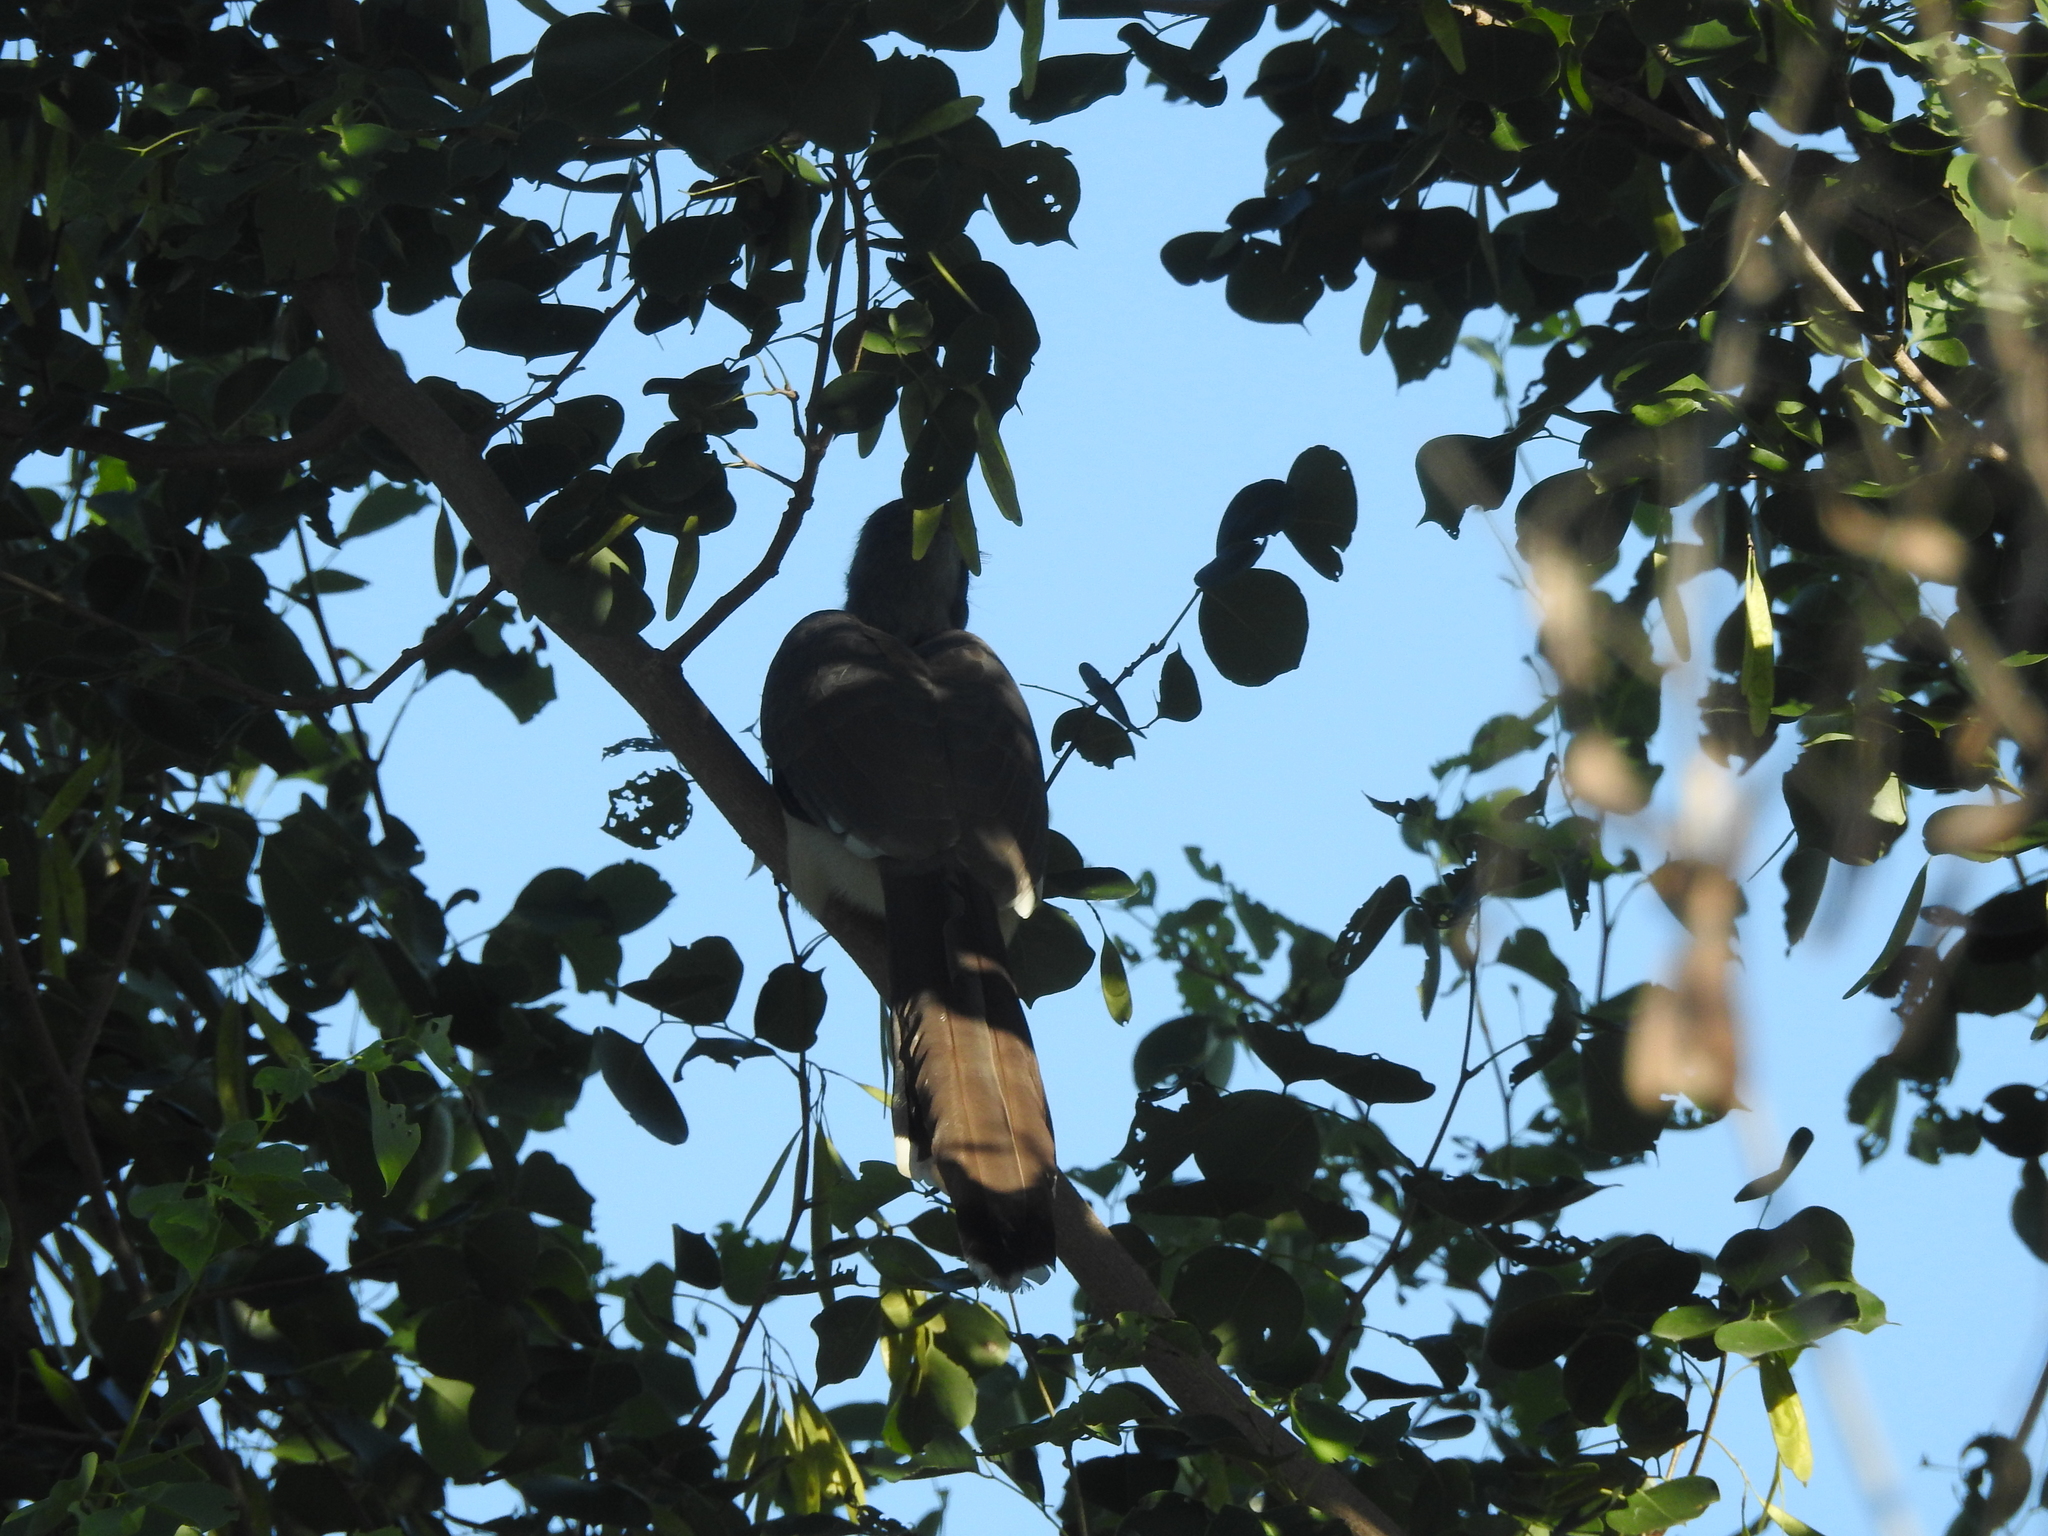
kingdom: Animalia
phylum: Chordata
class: Aves
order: Bucerotiformes
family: Bucerotidae
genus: Ocyceros
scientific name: Ocyceros birostris
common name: Indian grey hornbill
